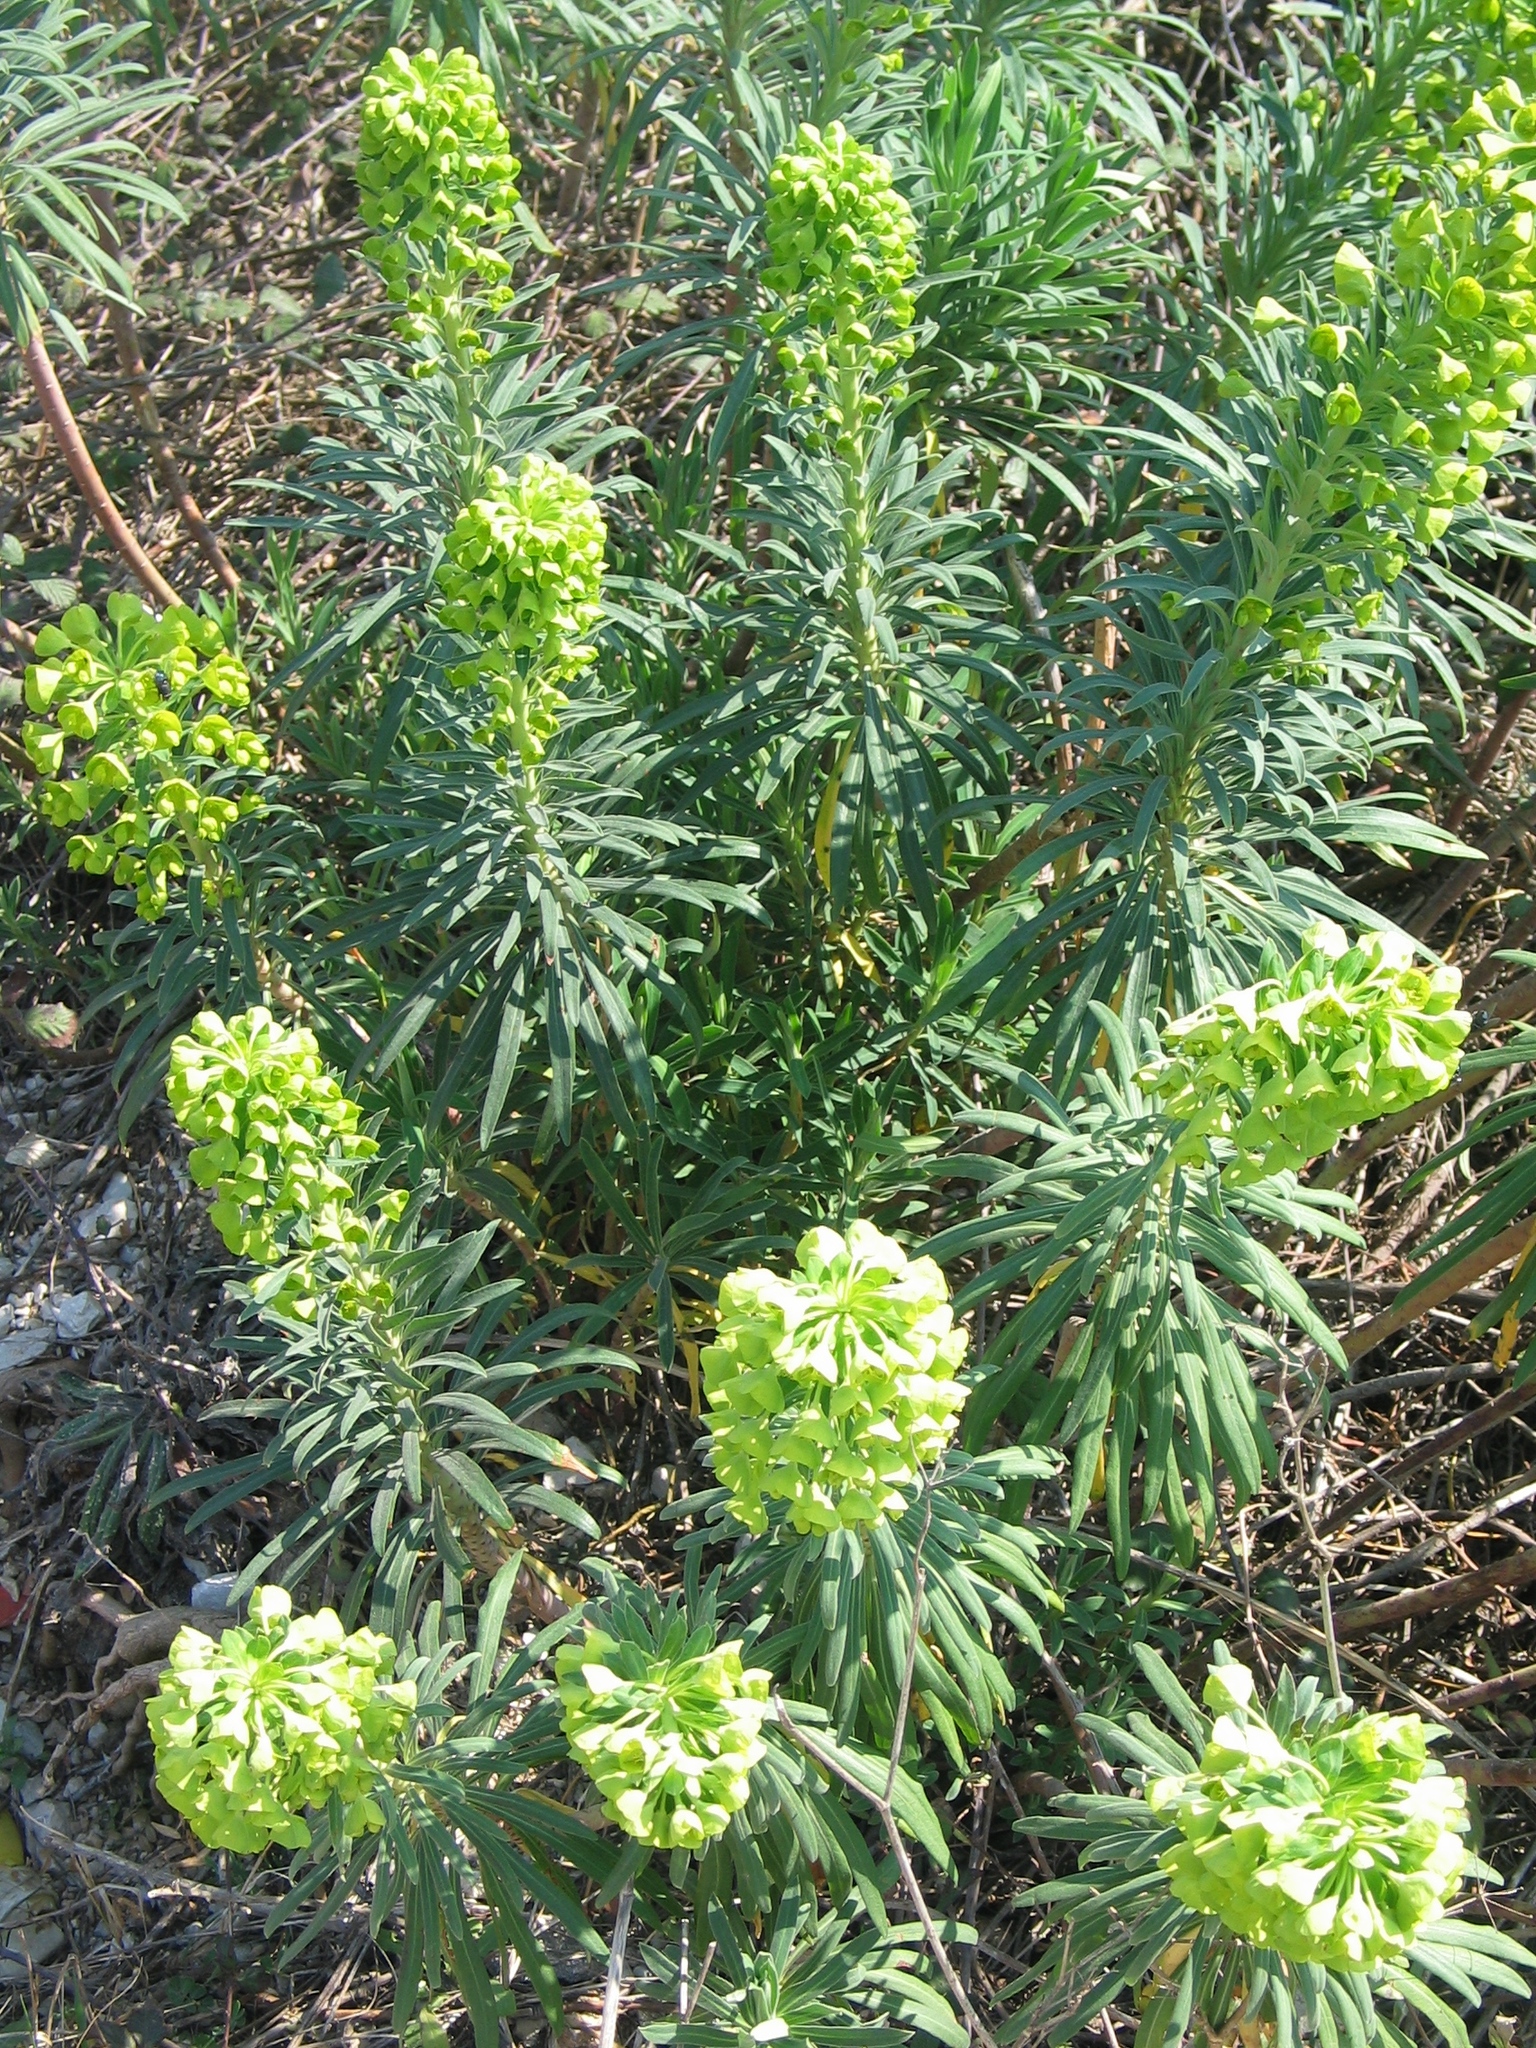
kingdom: Plantae
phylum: Tracheophyta
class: Magnoliopsida
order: Malpighiales
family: Euphorbiaceae
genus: Euphorbia
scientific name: Euphorbia characias
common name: Mediterranean spurge
